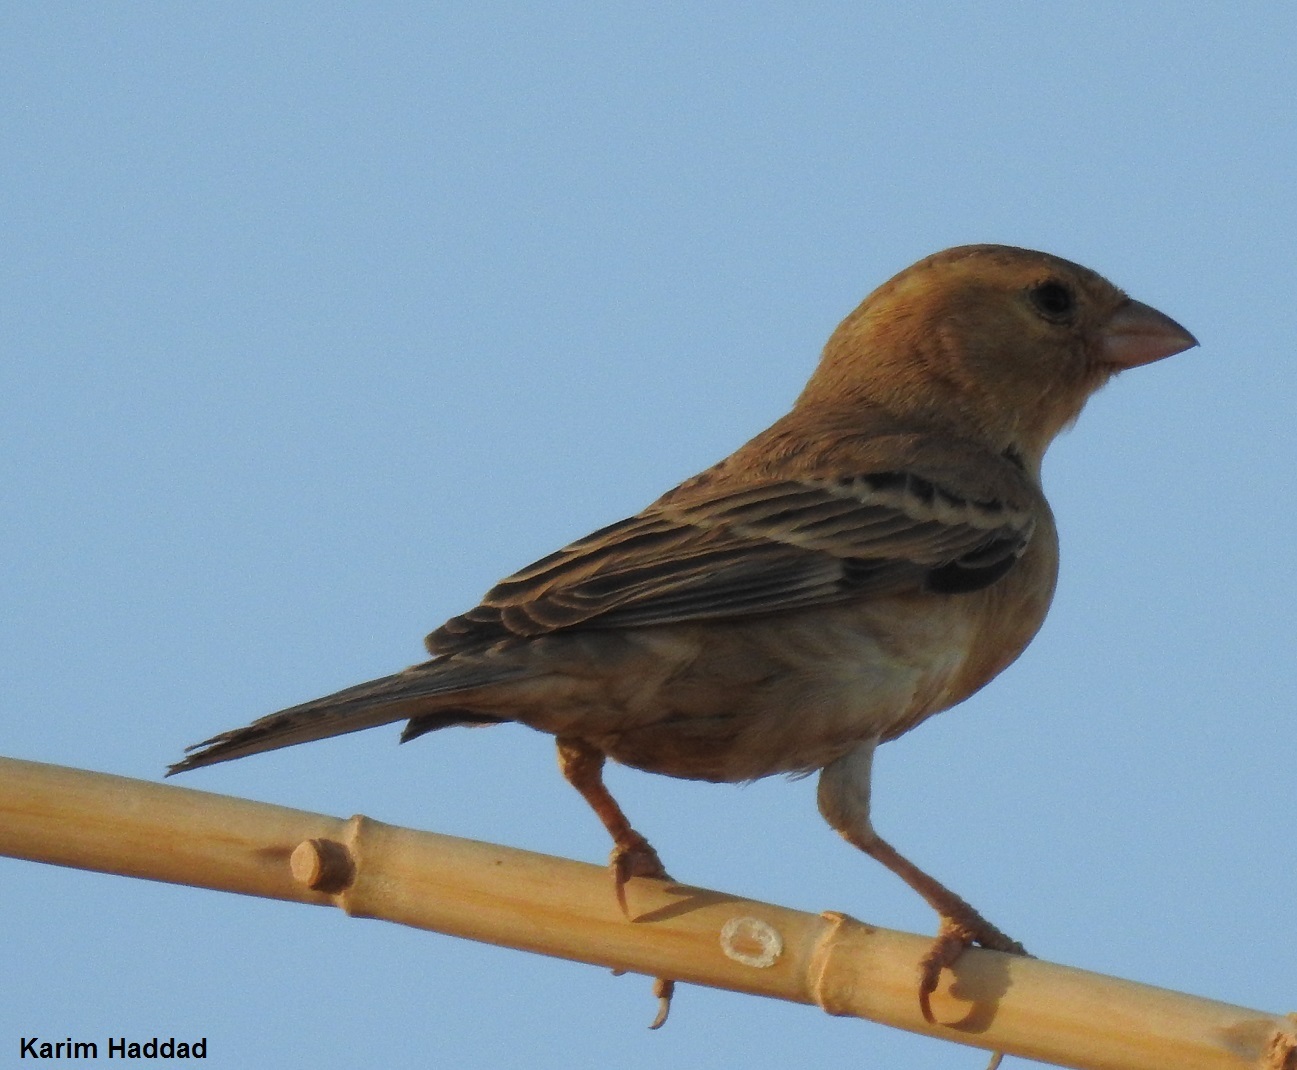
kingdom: Animalia
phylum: Chordata
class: Aves
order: Passeriformes
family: Passeridae
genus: Passer
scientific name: Passer luteus
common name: Sudan golden sparrow
